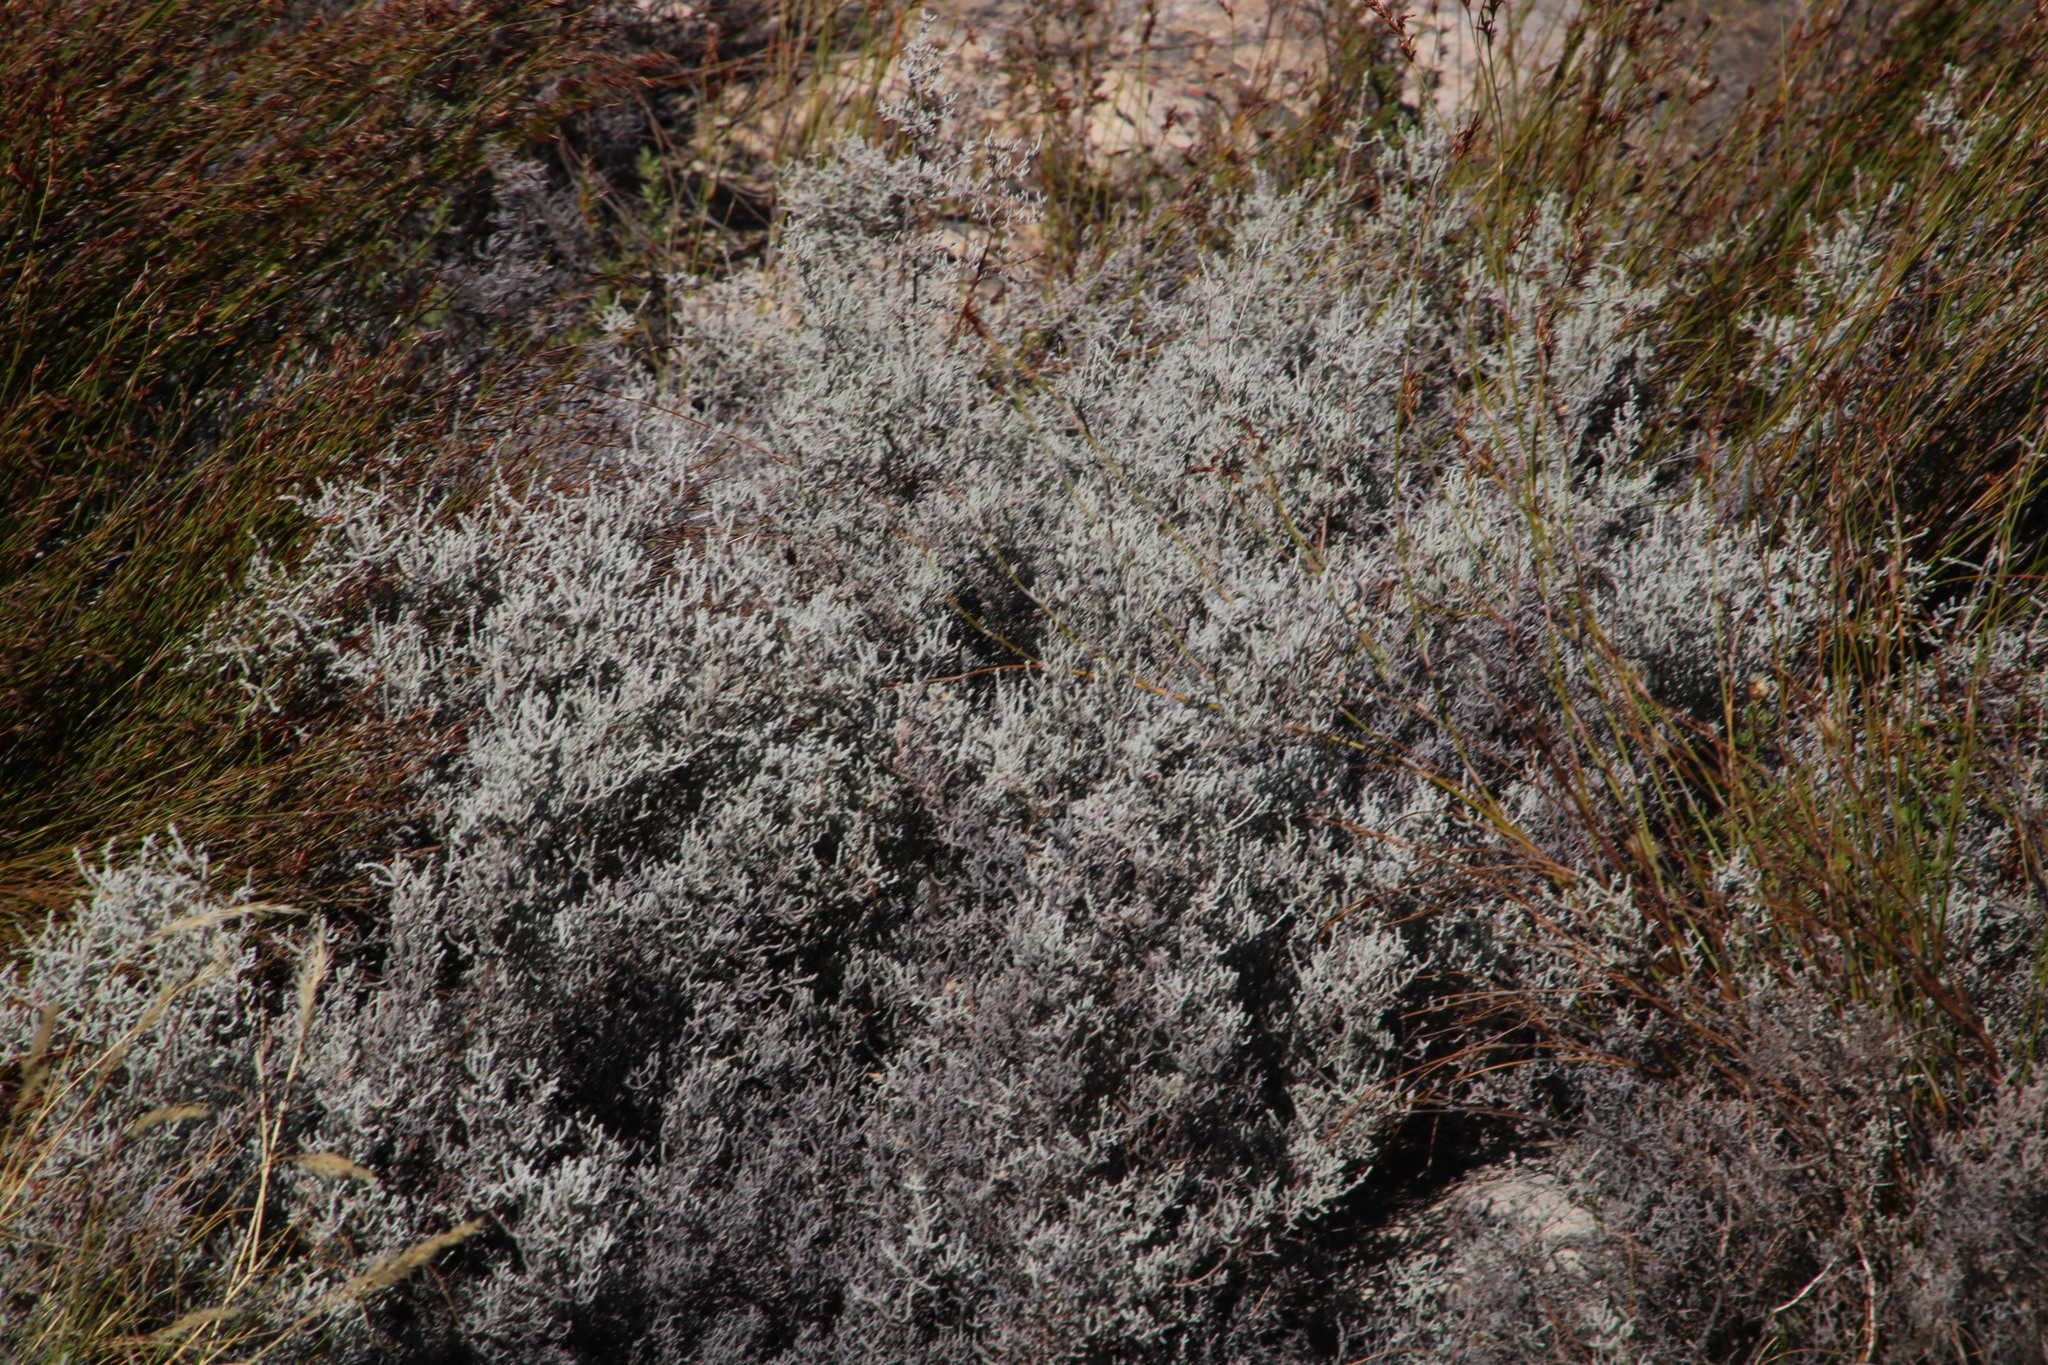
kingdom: Plantae
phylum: Tracheophyta
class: Magnoliopsida
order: Asterales
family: Asteraceae
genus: Seriphium
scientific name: Seriphium plumosum
